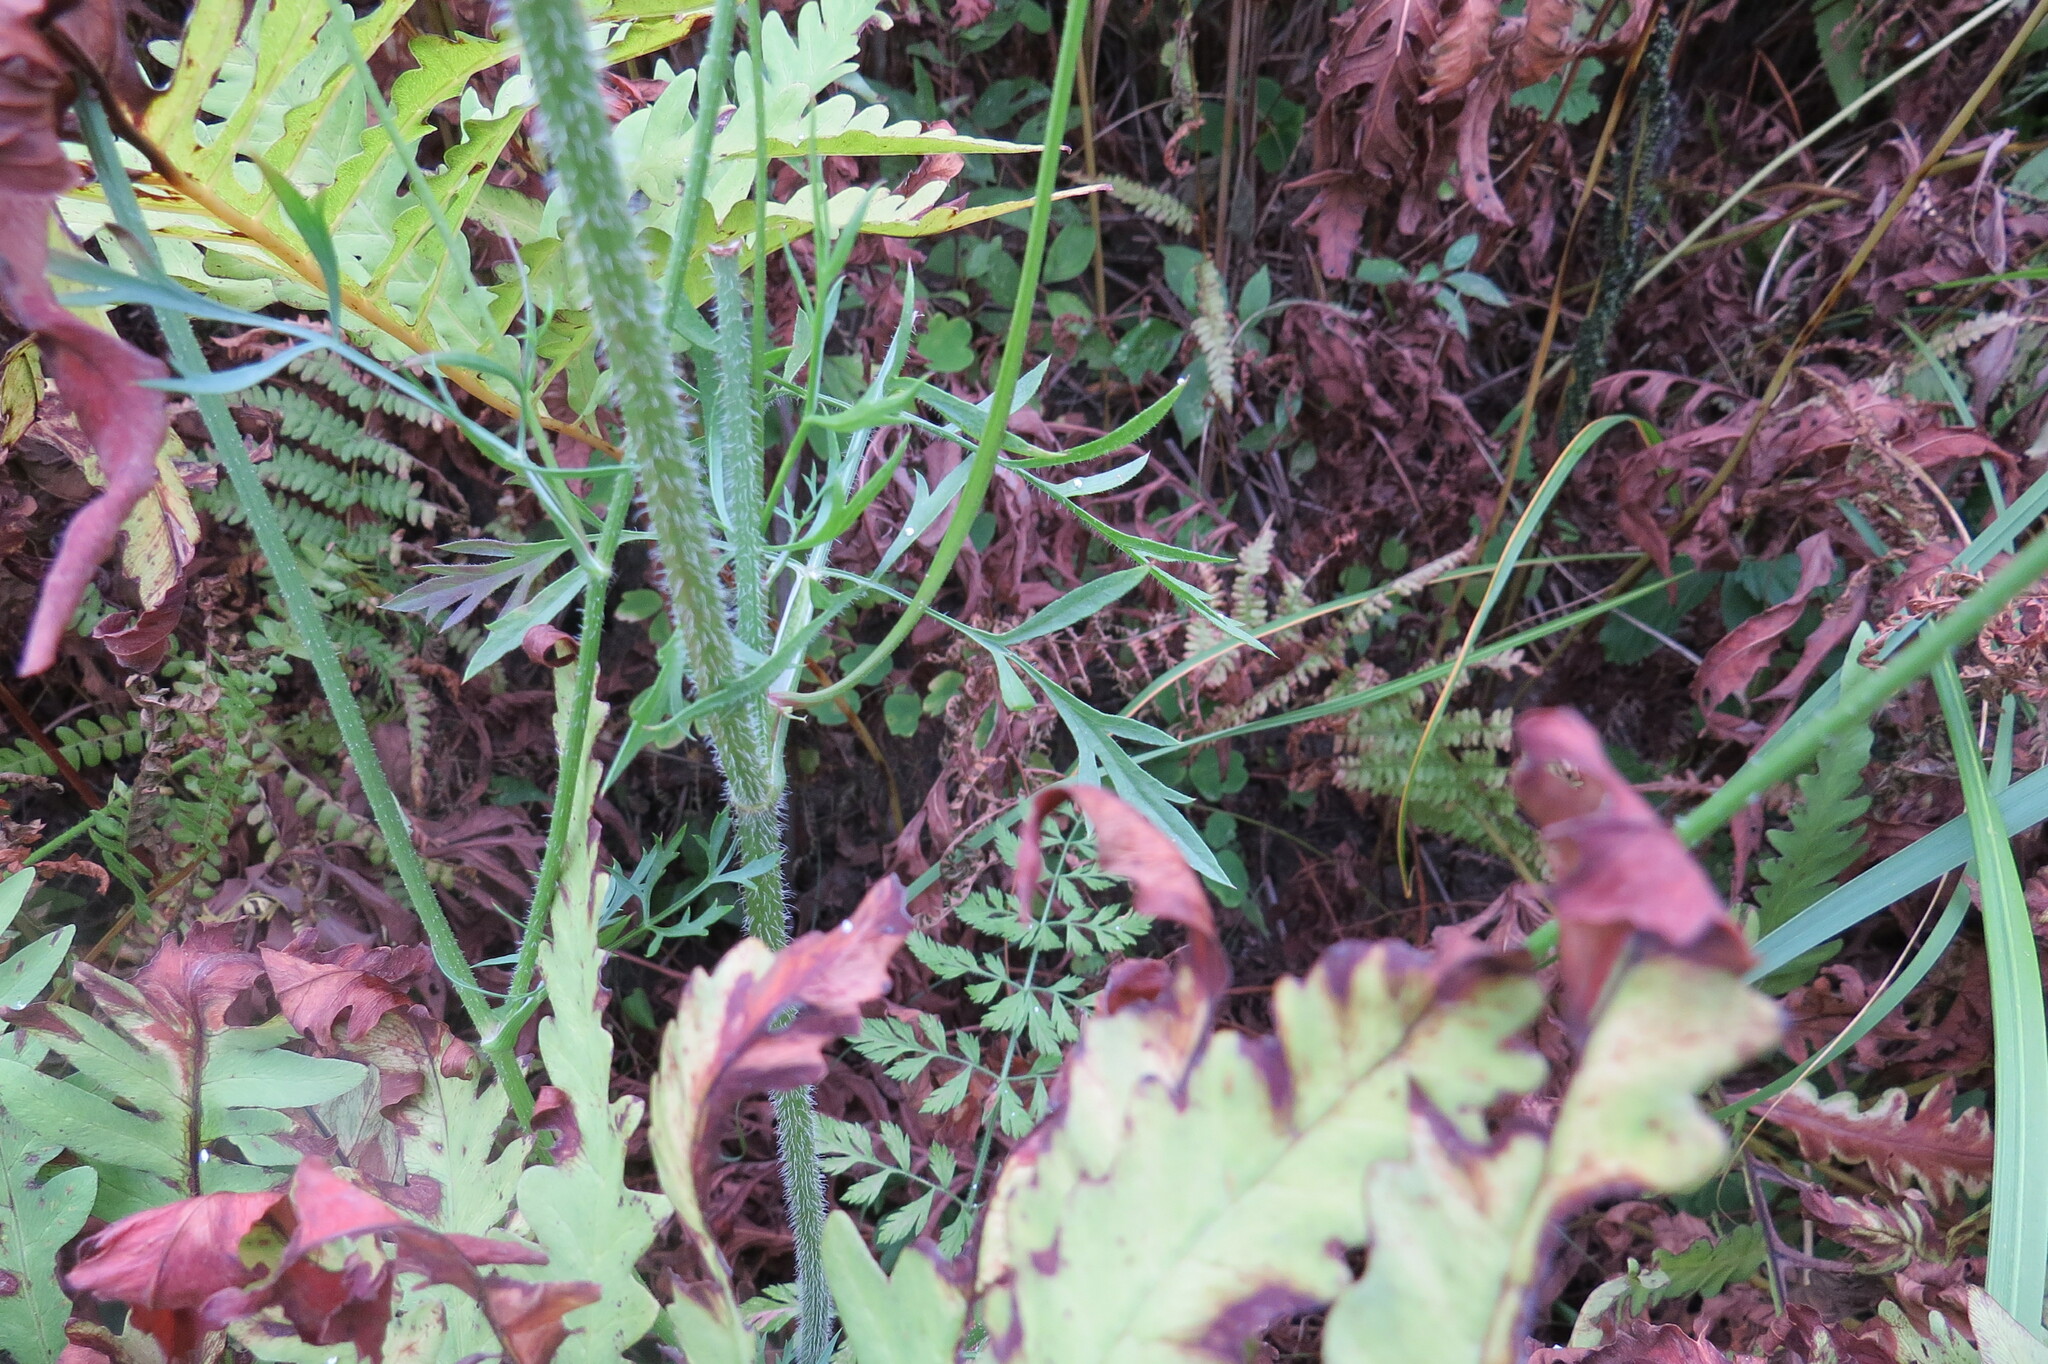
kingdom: Plantae
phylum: Tracheophyta
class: Magnoliopsida
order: Apiales
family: Apiaceae
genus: Daucus
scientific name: Daucus carota
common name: Wild carrot
